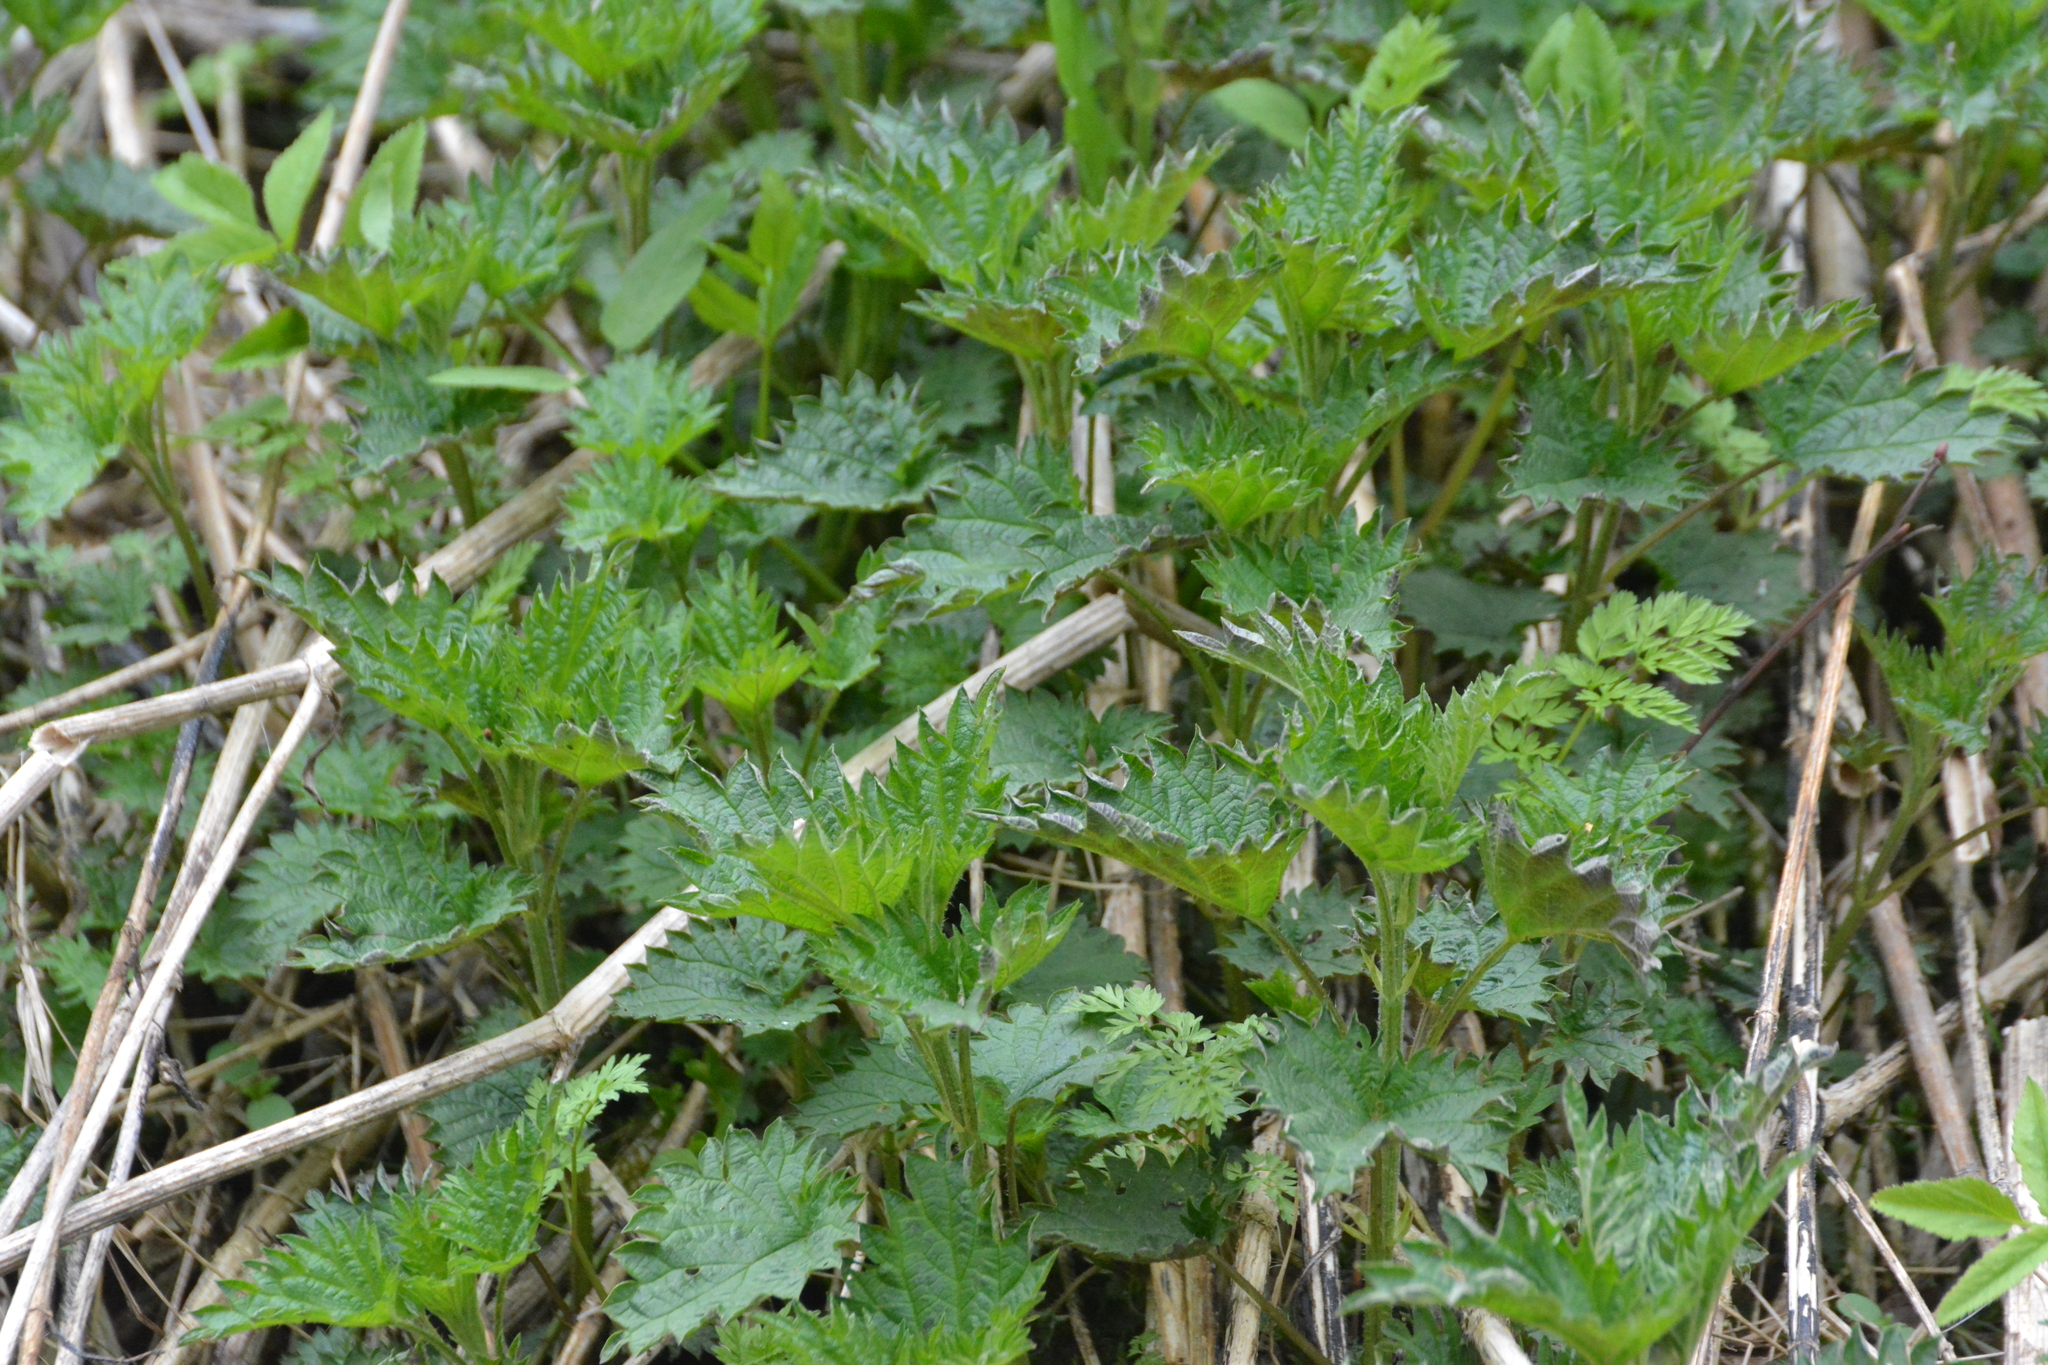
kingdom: Plantae
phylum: Tracheophyta
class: Magnoliopsida
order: Rosales
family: Urticaceae
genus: Urtica
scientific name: Urtica dioica
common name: Common nettle
